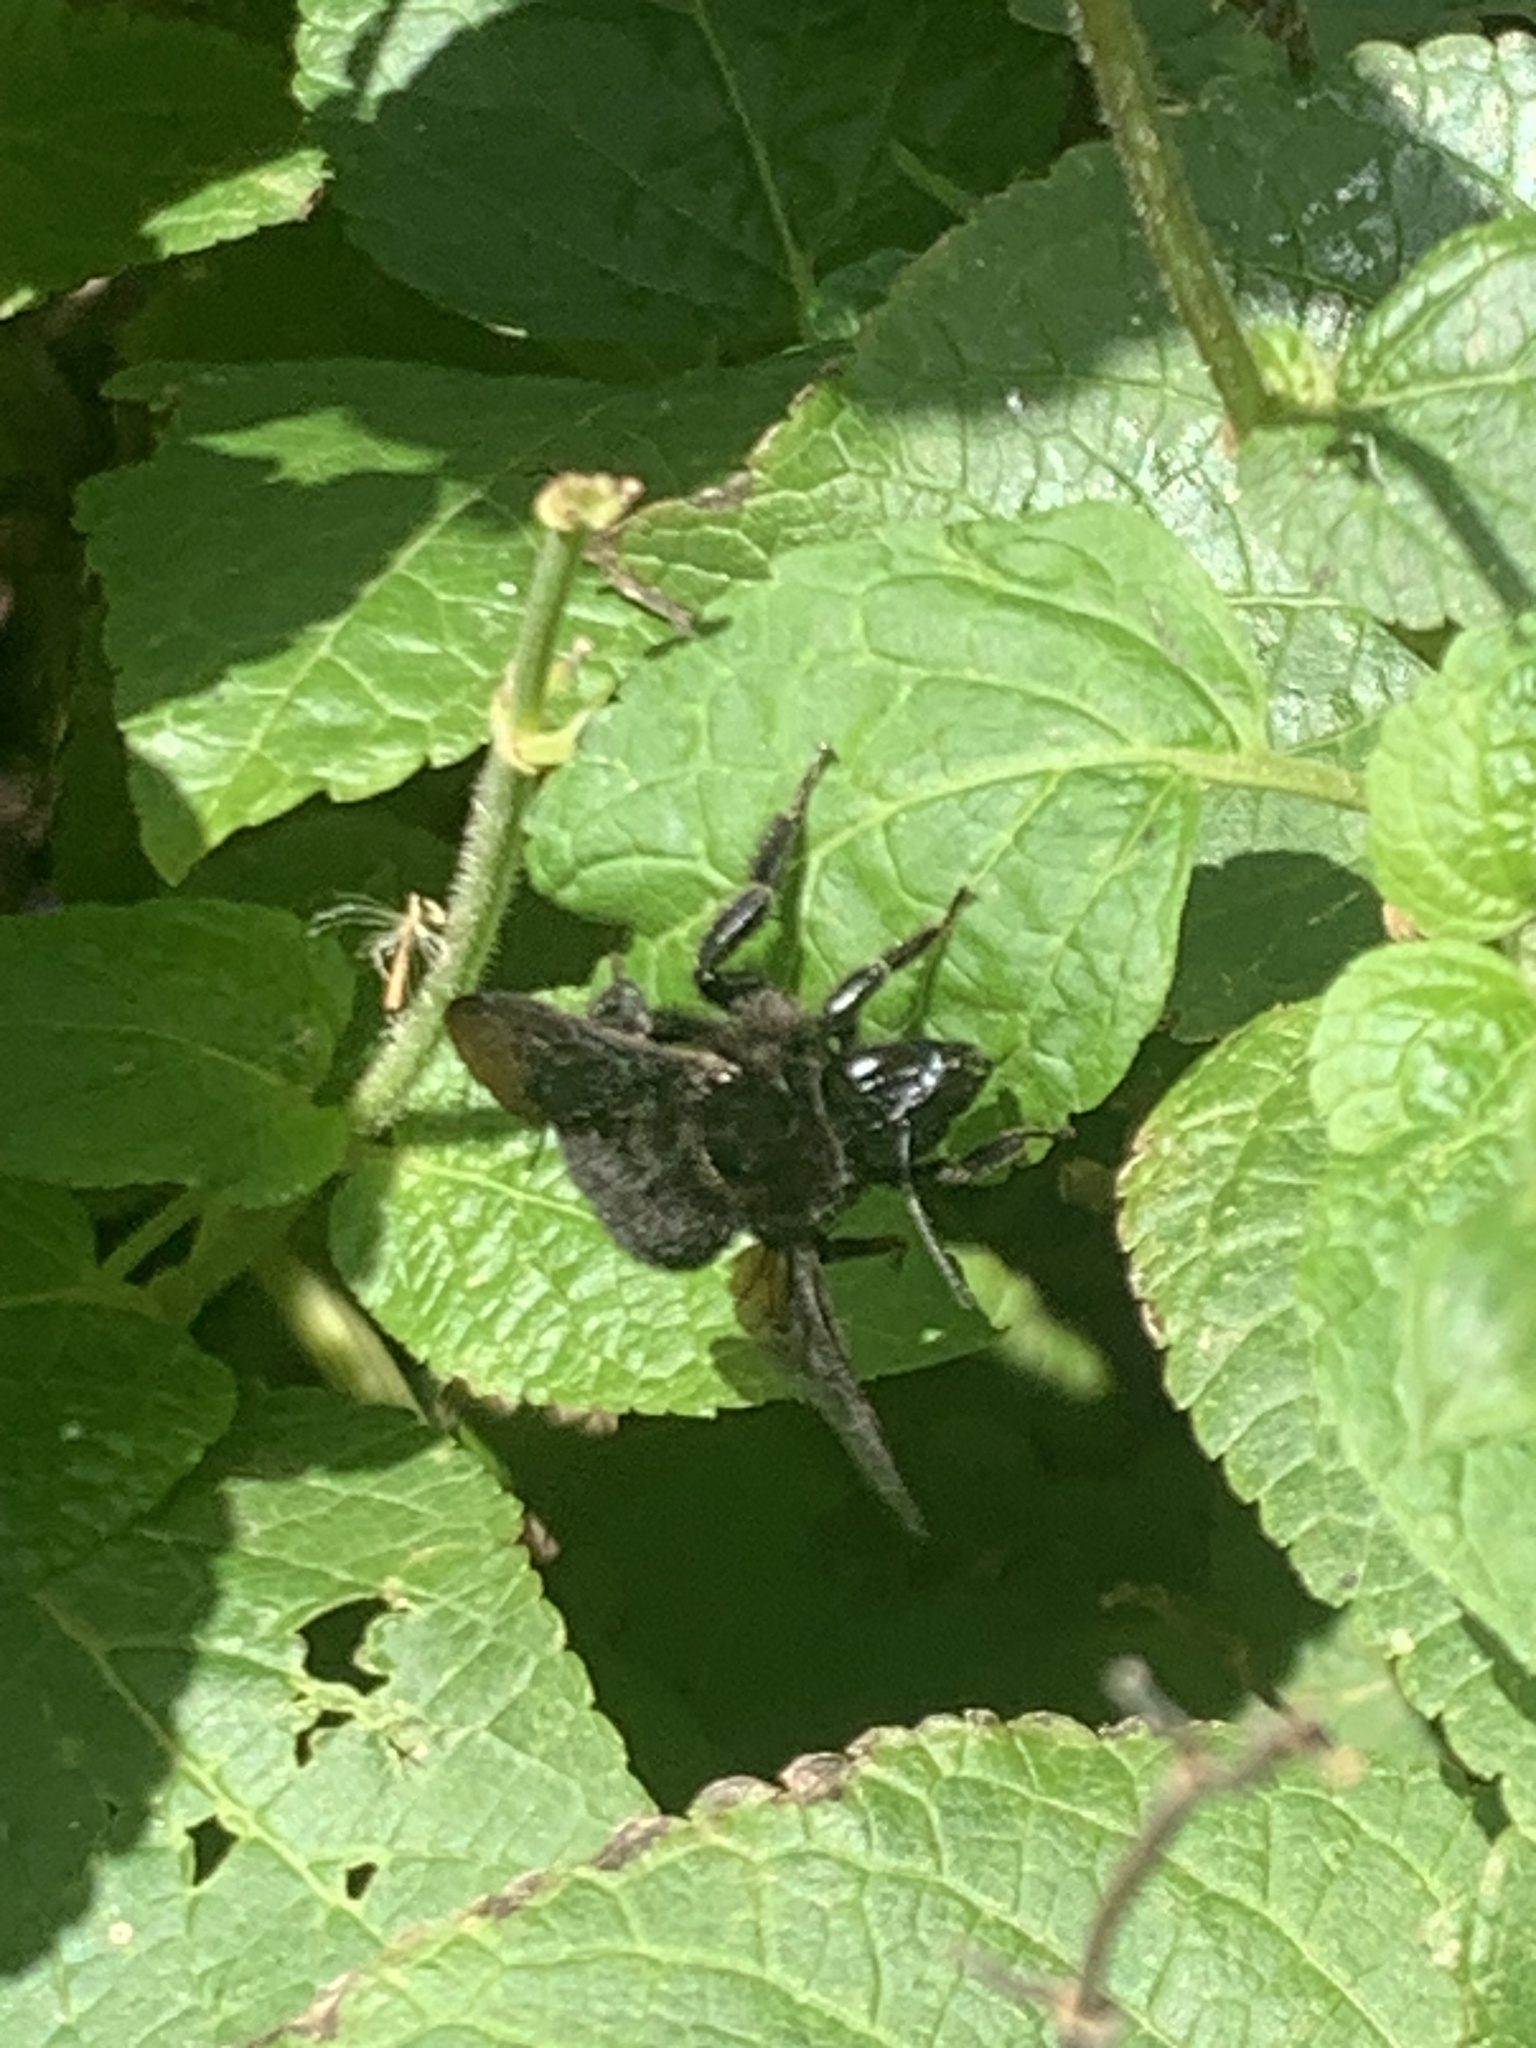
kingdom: Animalia
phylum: Arthropoda
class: Insecta
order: Hymenoptera
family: Apidae
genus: Bombus
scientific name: Bombus pauloensis
